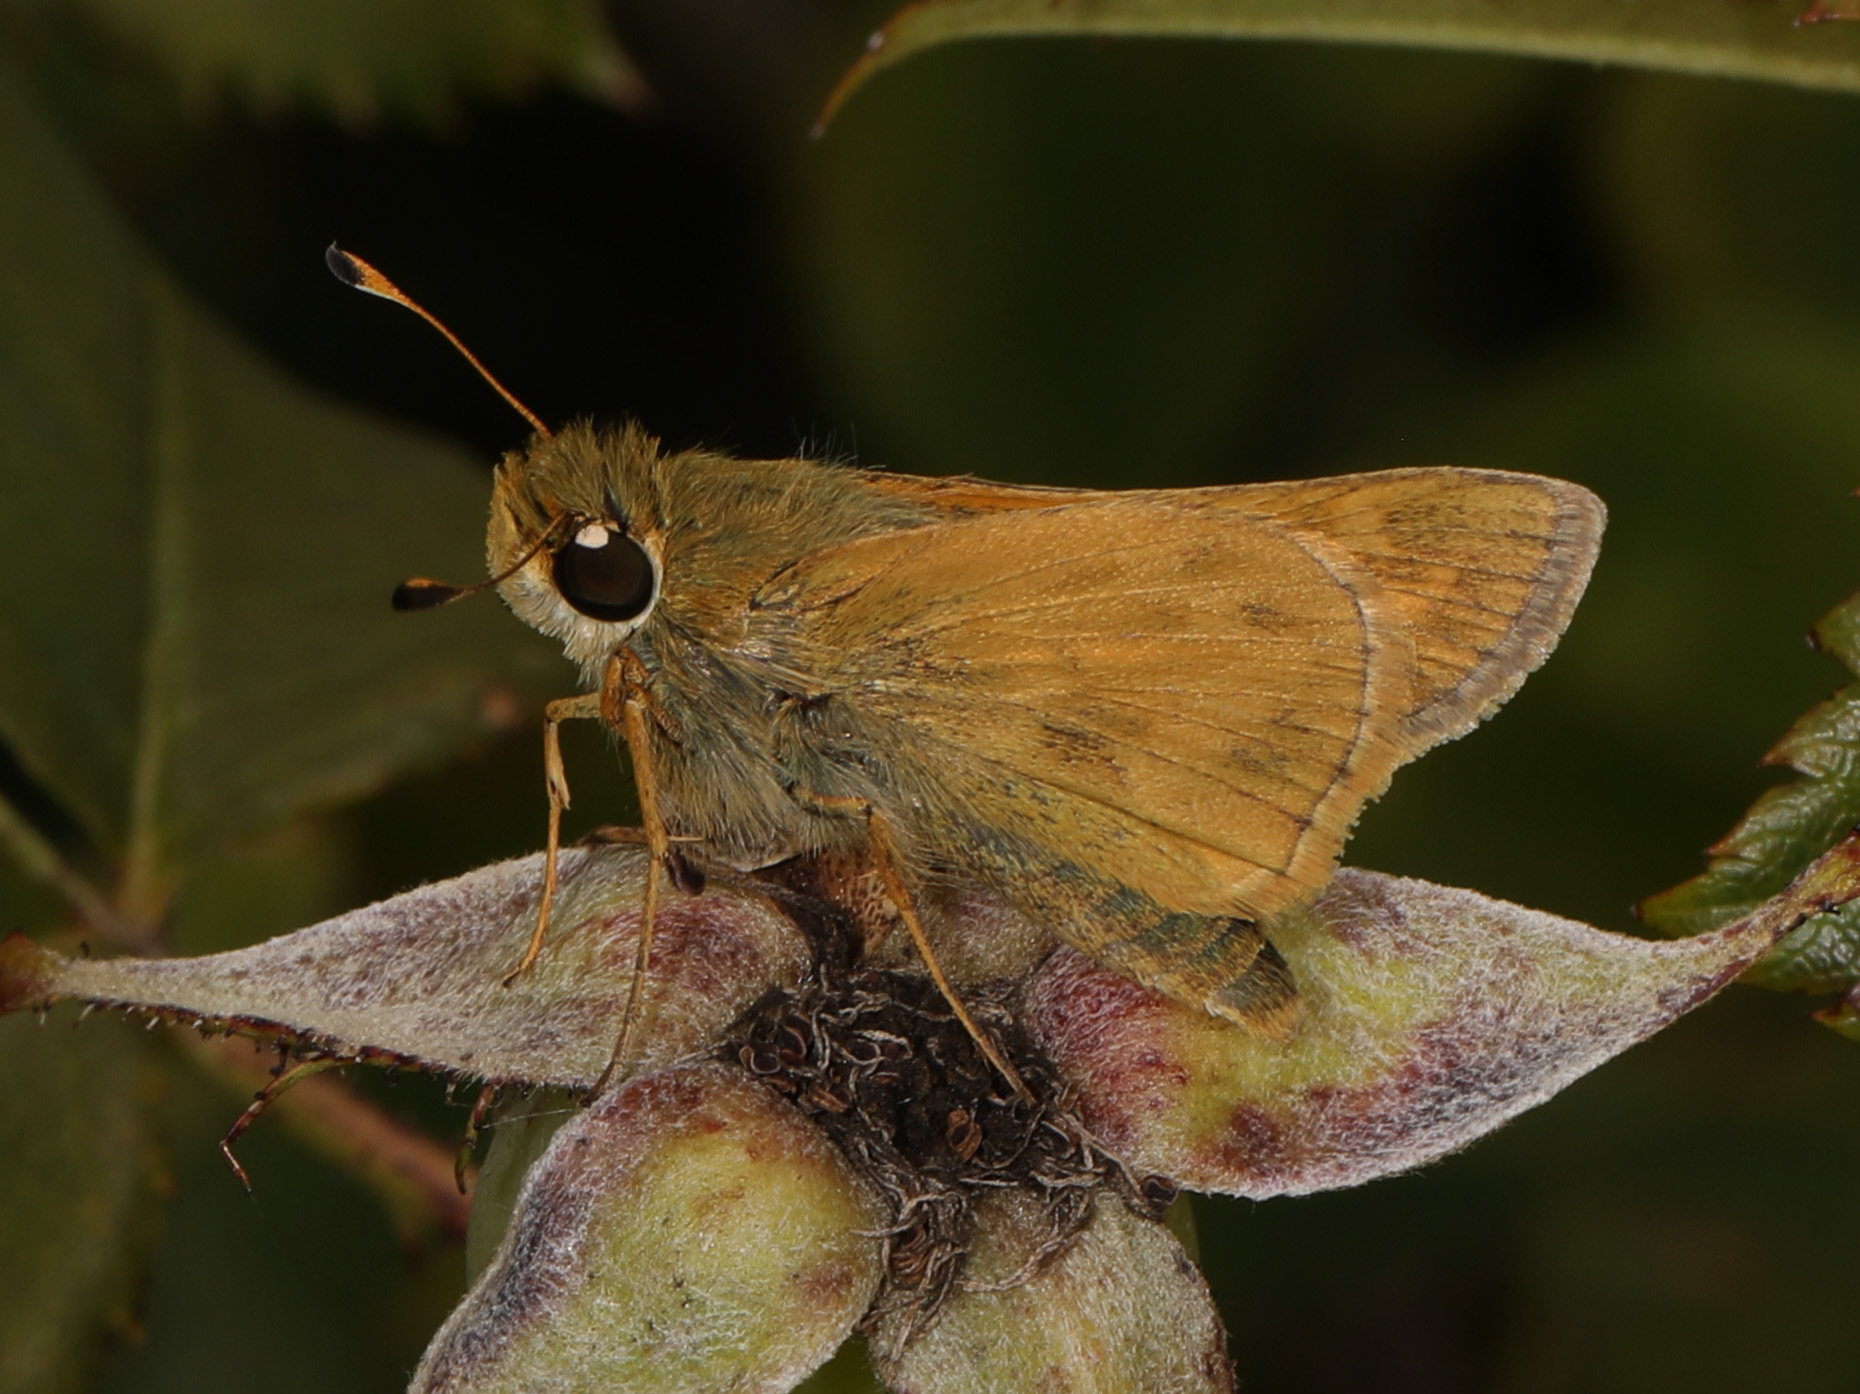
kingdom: Animalia
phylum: Arthropoda
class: Insecta
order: Lepidoptera
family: Hesperiidae
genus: Atalopedes
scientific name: Atalopedes
